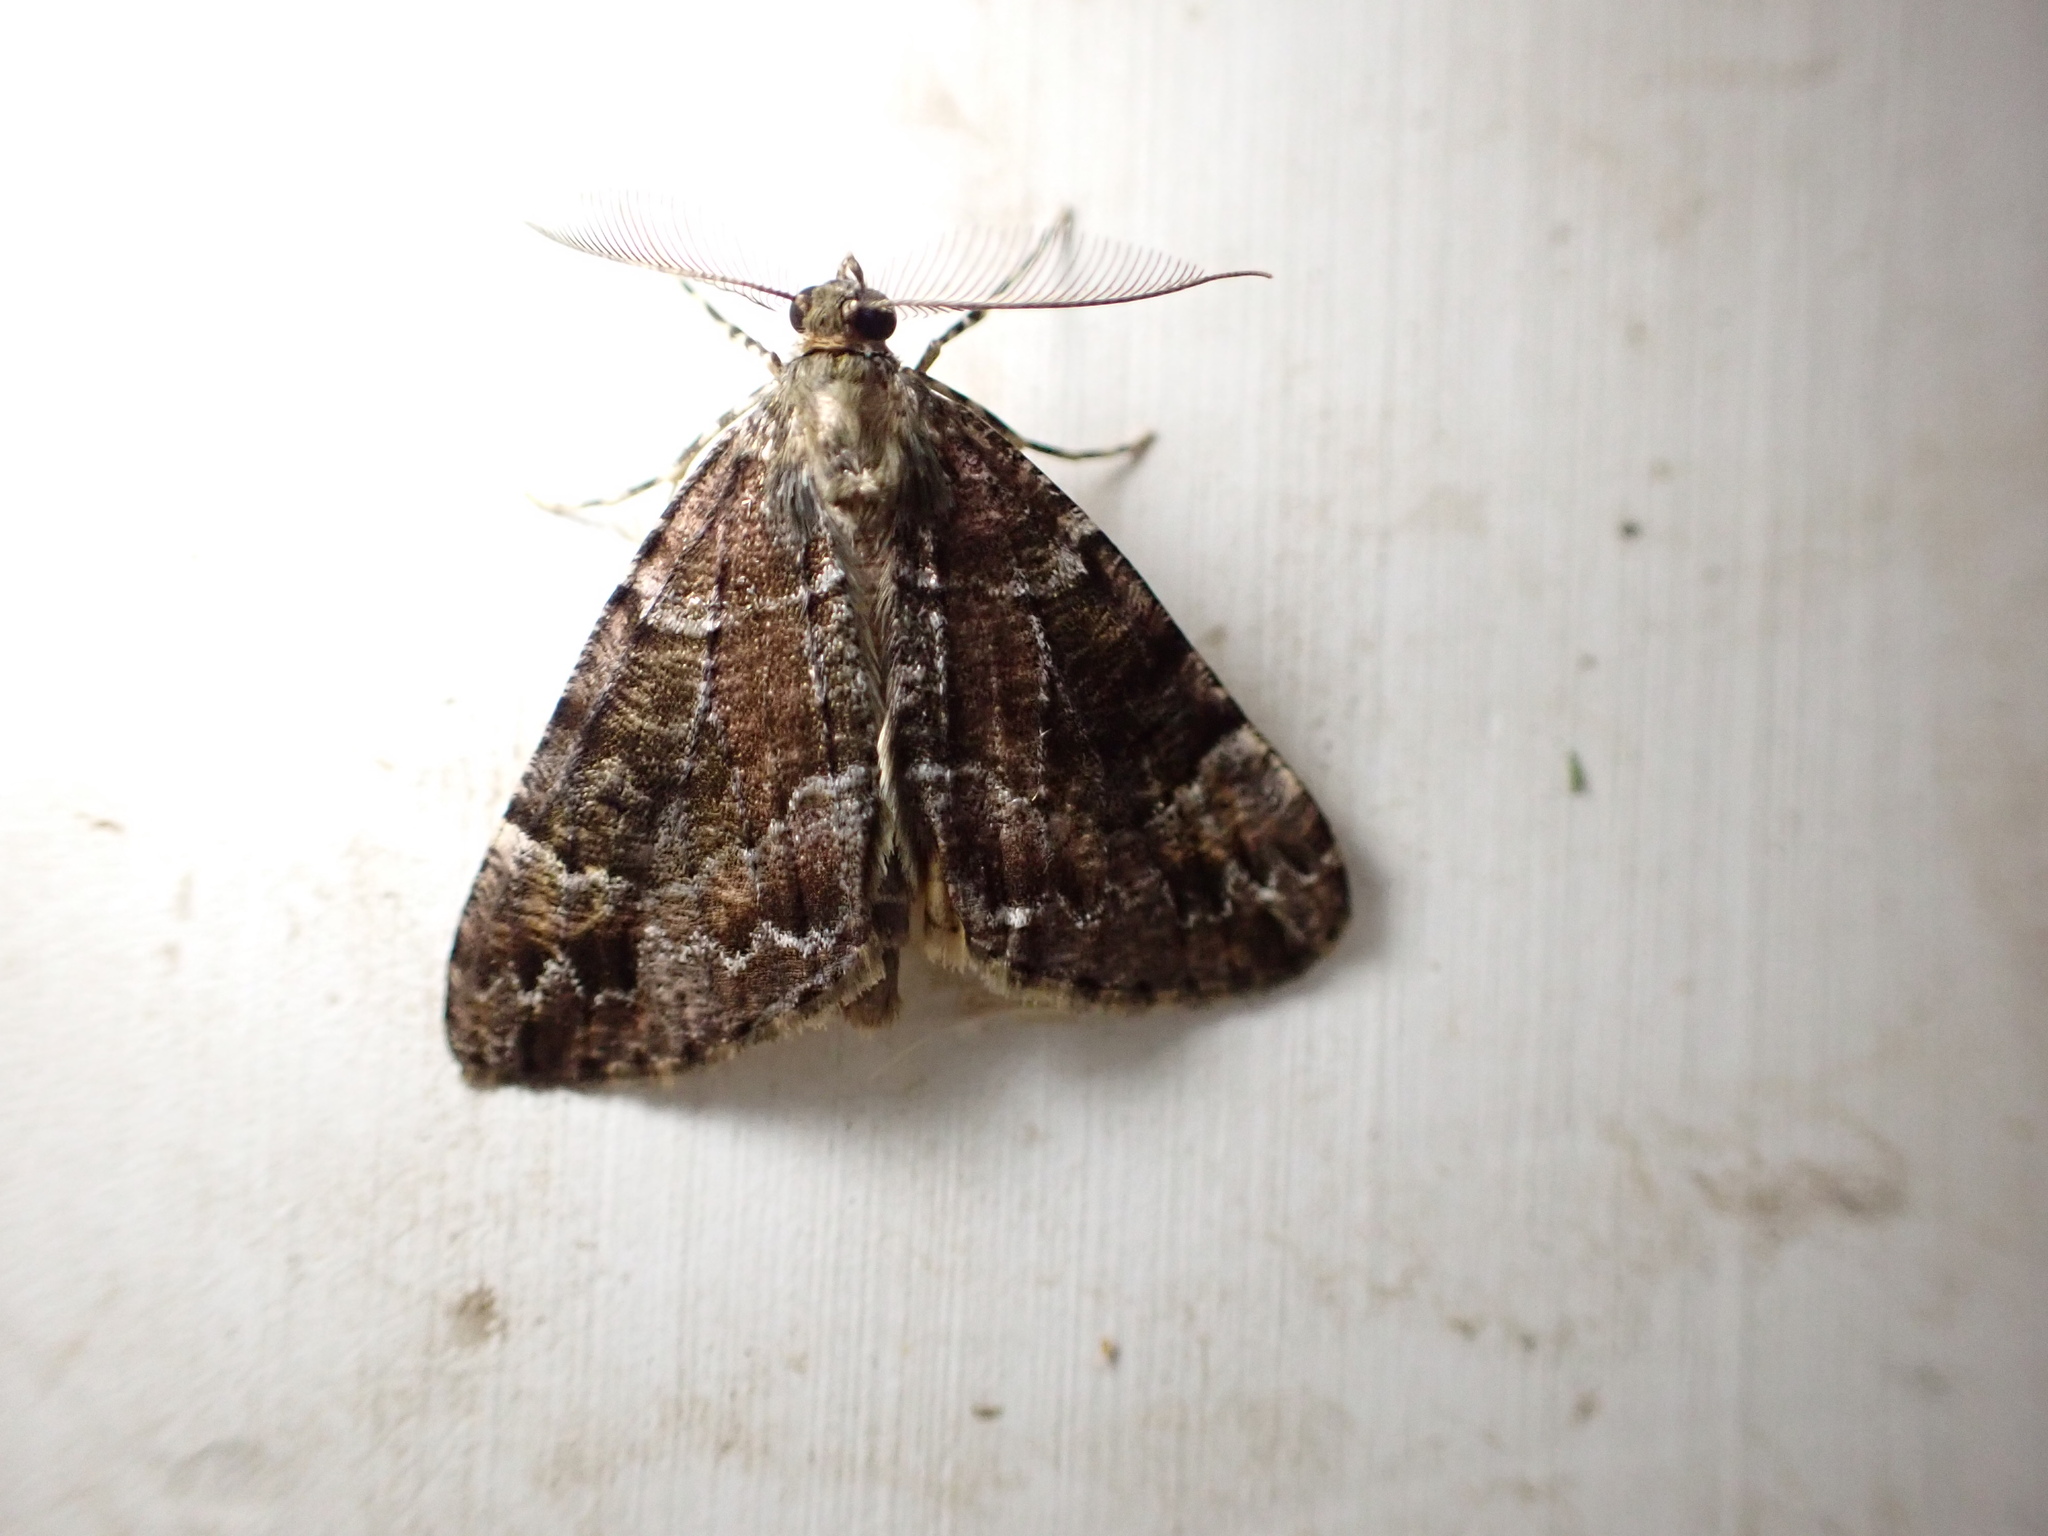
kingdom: Animalia
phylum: Arthropoda
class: Insecta
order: Lepidoptera
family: Geometridae
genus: Pseudocoremia
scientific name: Pseudocoremia productata
